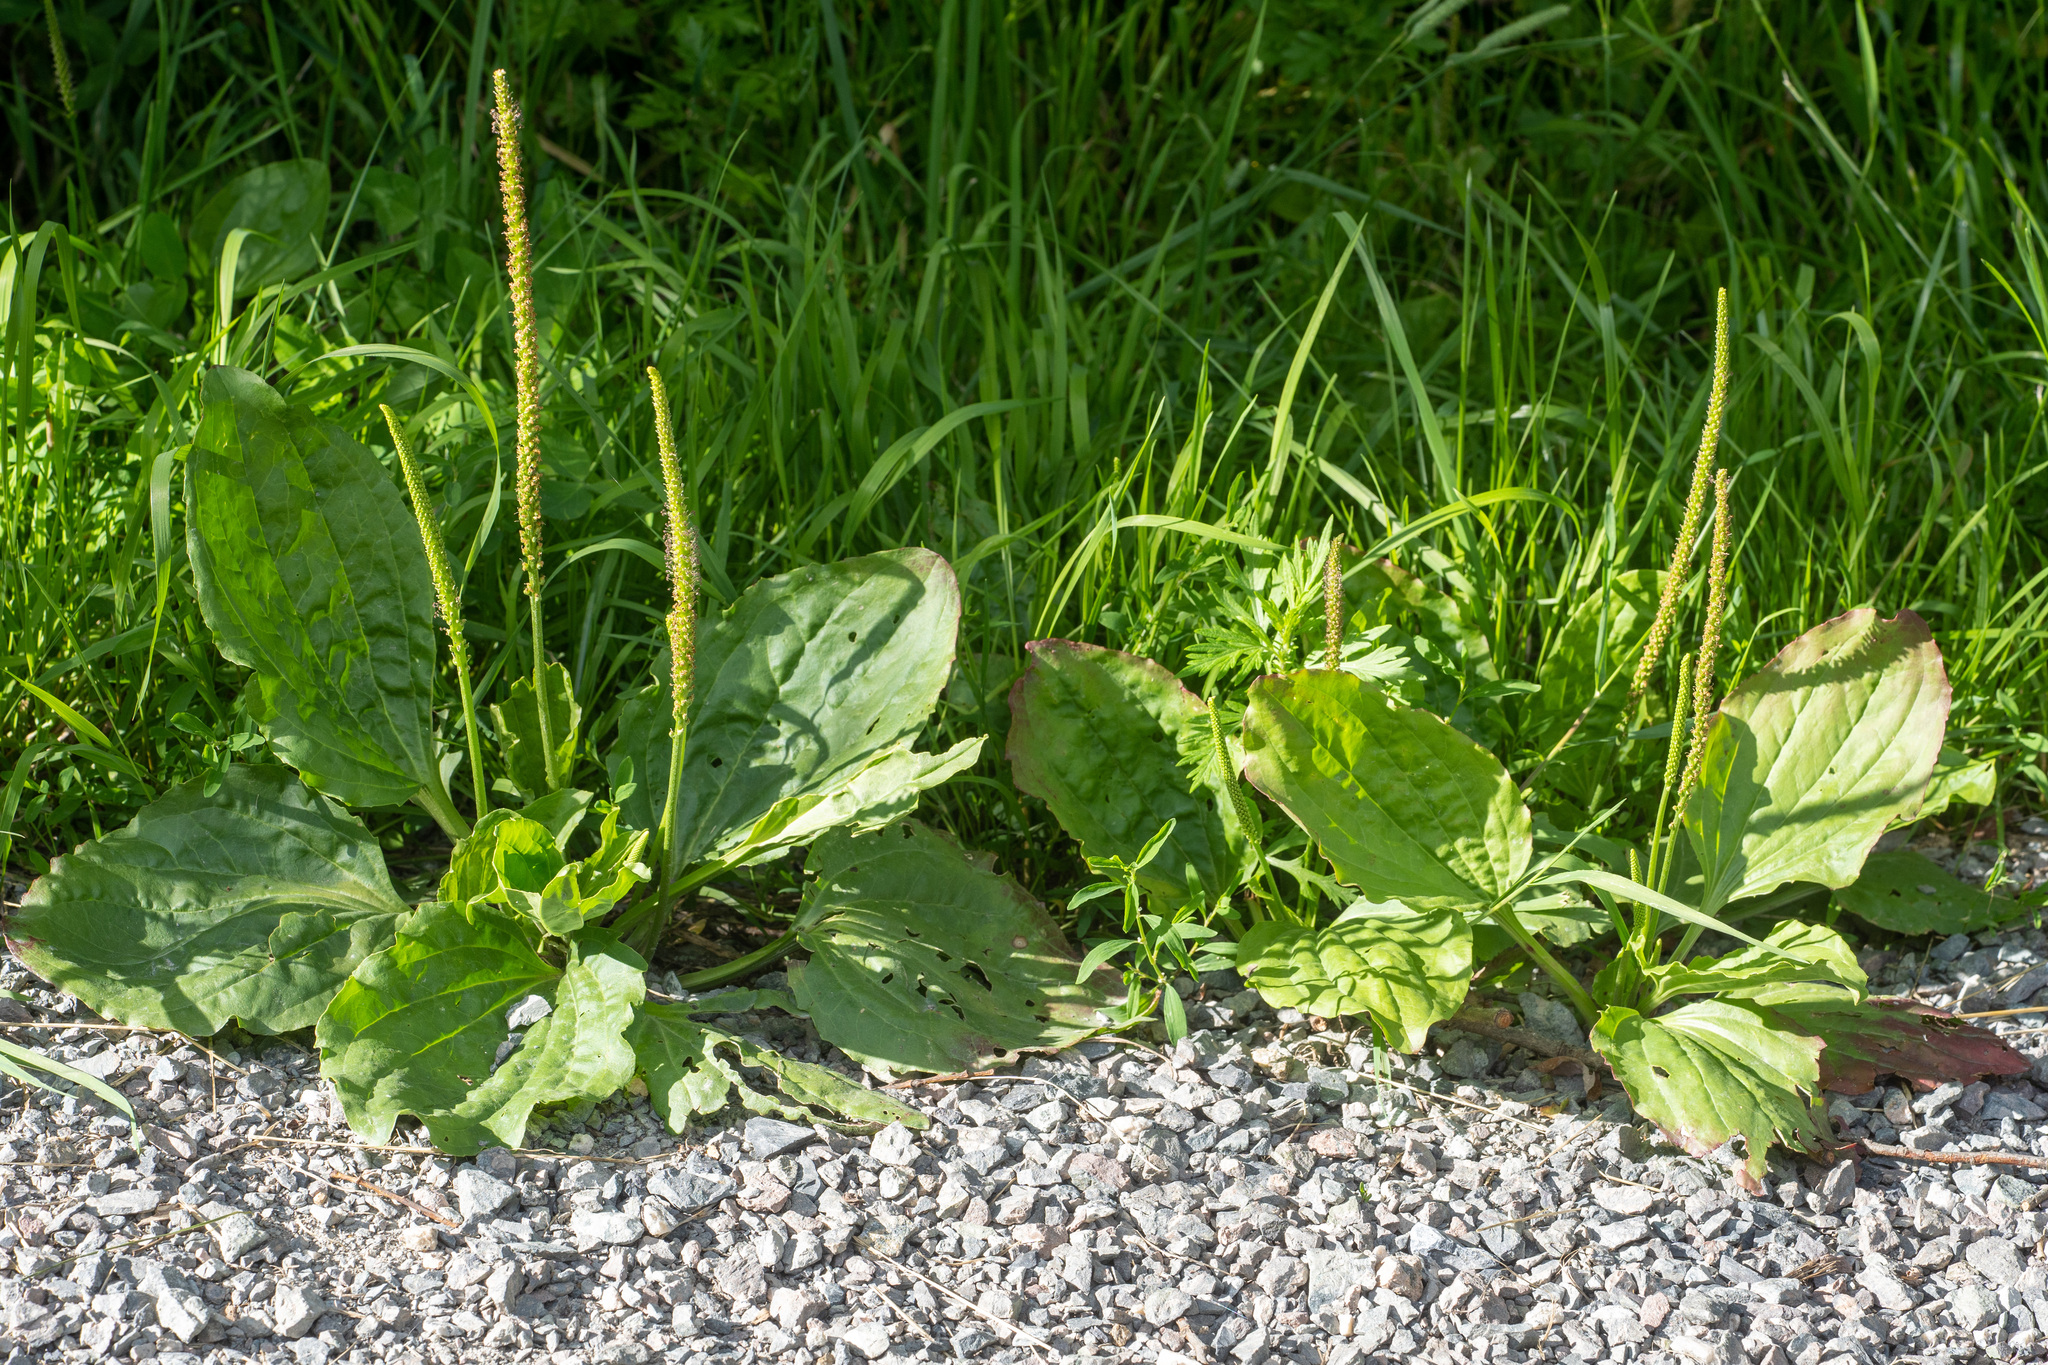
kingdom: Plantae
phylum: Tracheophyta
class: Magnoliopsida
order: Lamiales
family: Plantaginaceae
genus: Plantago
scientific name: Plantago major
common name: Common plantain
